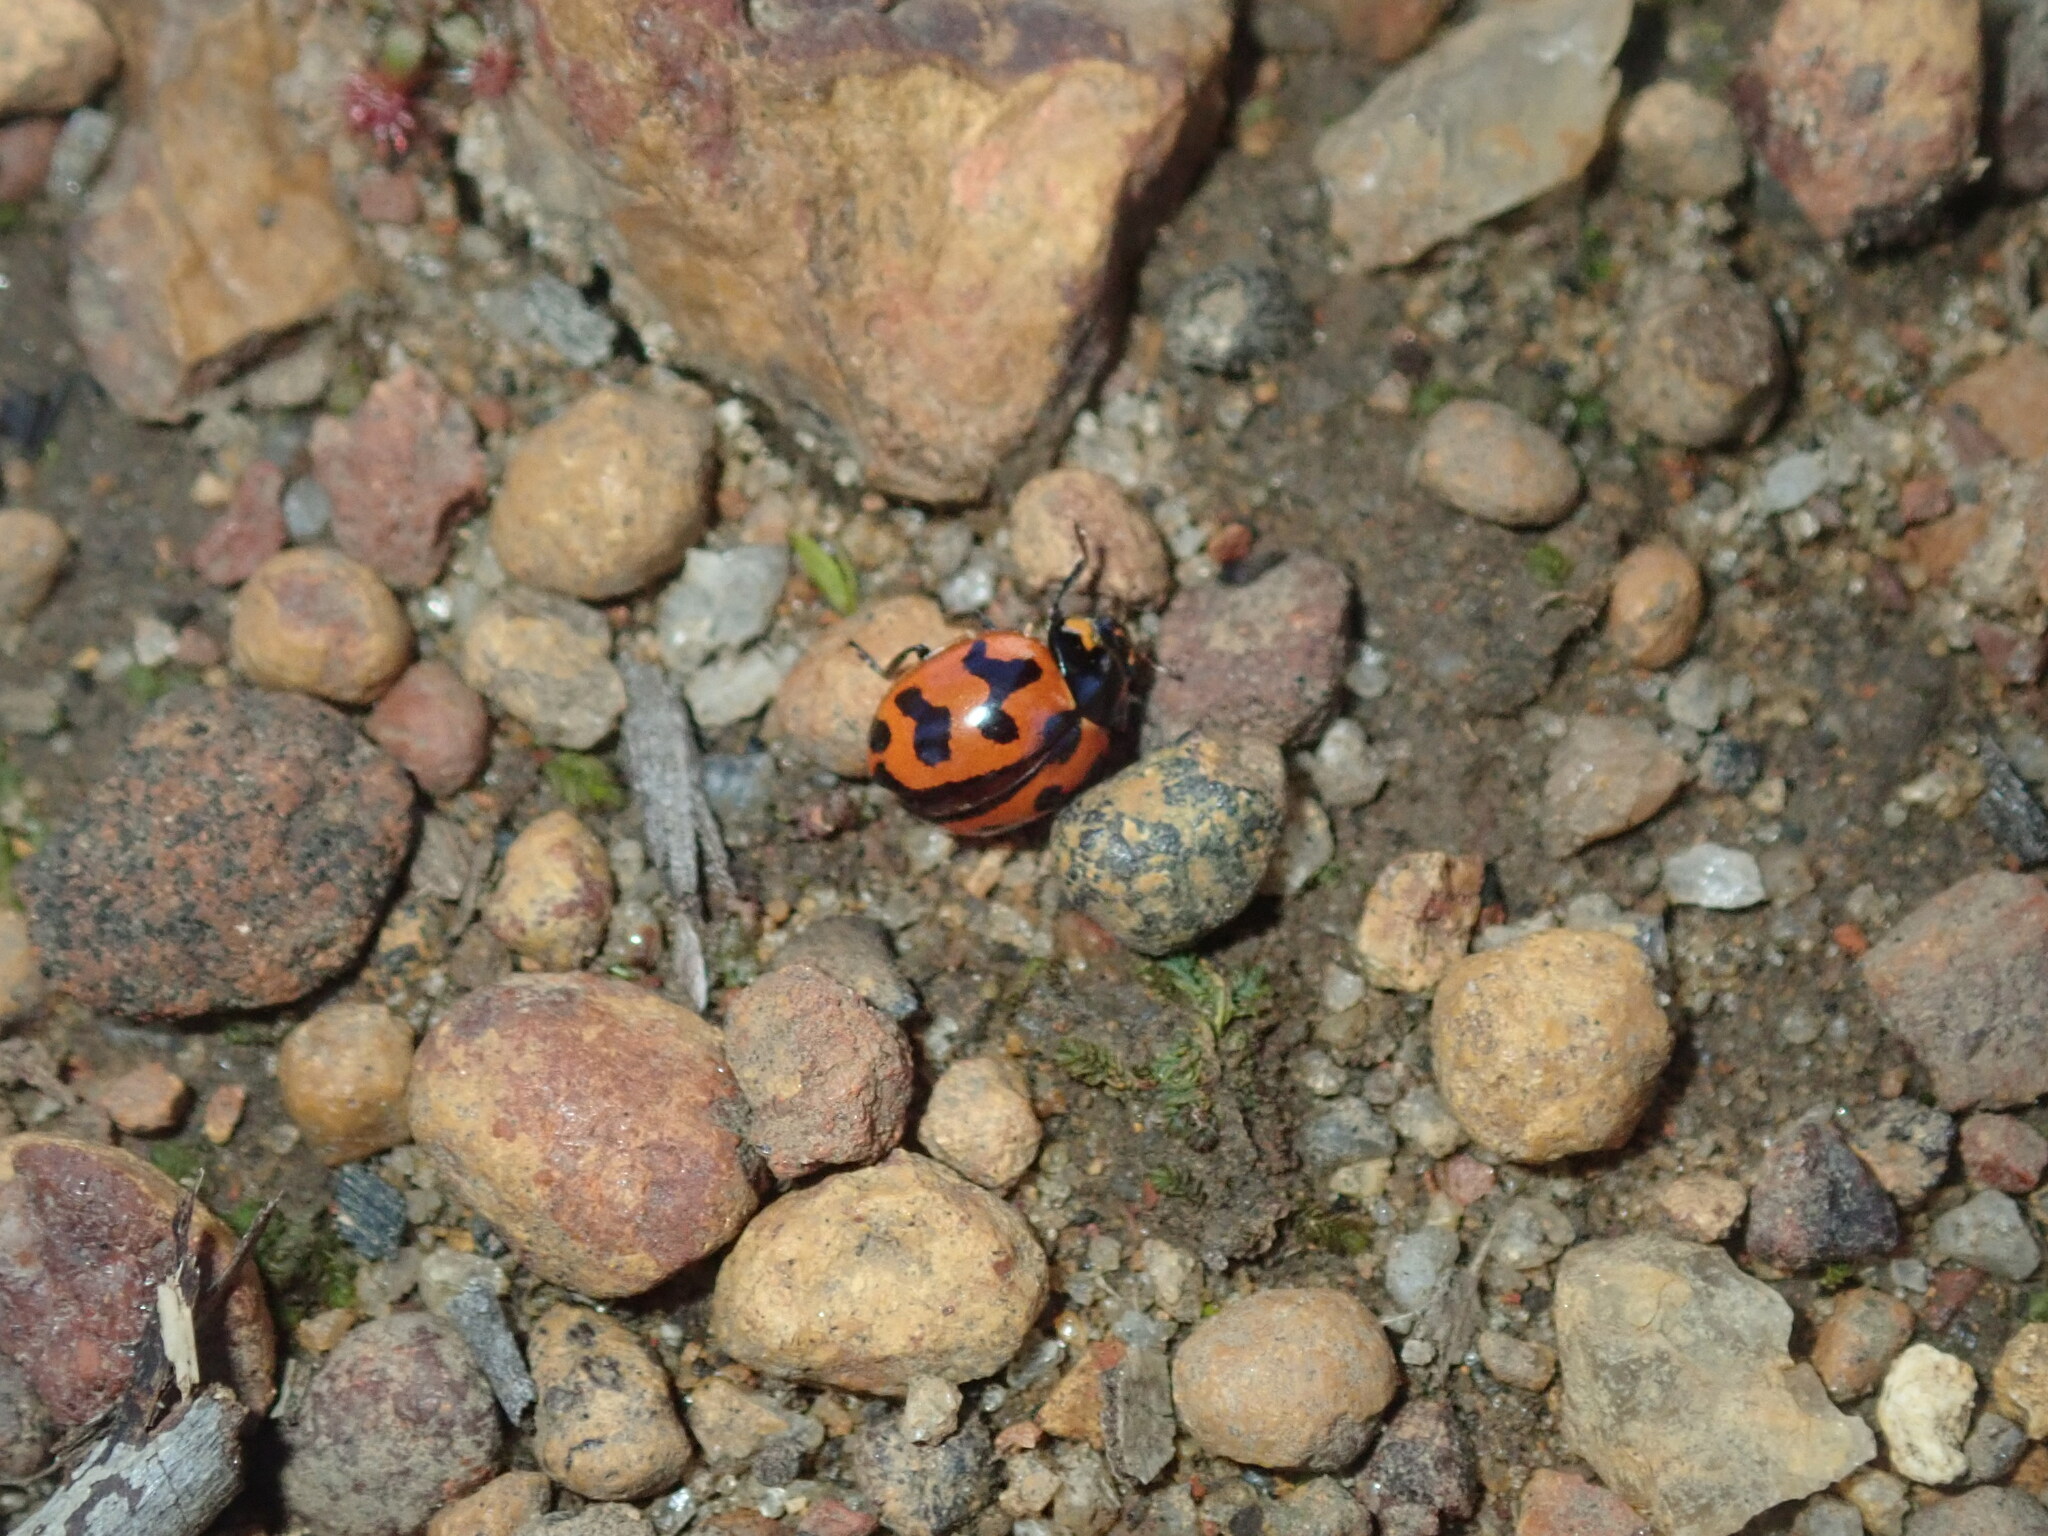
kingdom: Animalia
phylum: Arthropoda
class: Insecta
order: Coleoptera
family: Coccinellidae
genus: Coccinella
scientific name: Coccinella transversalis
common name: Transverse lady beetle
